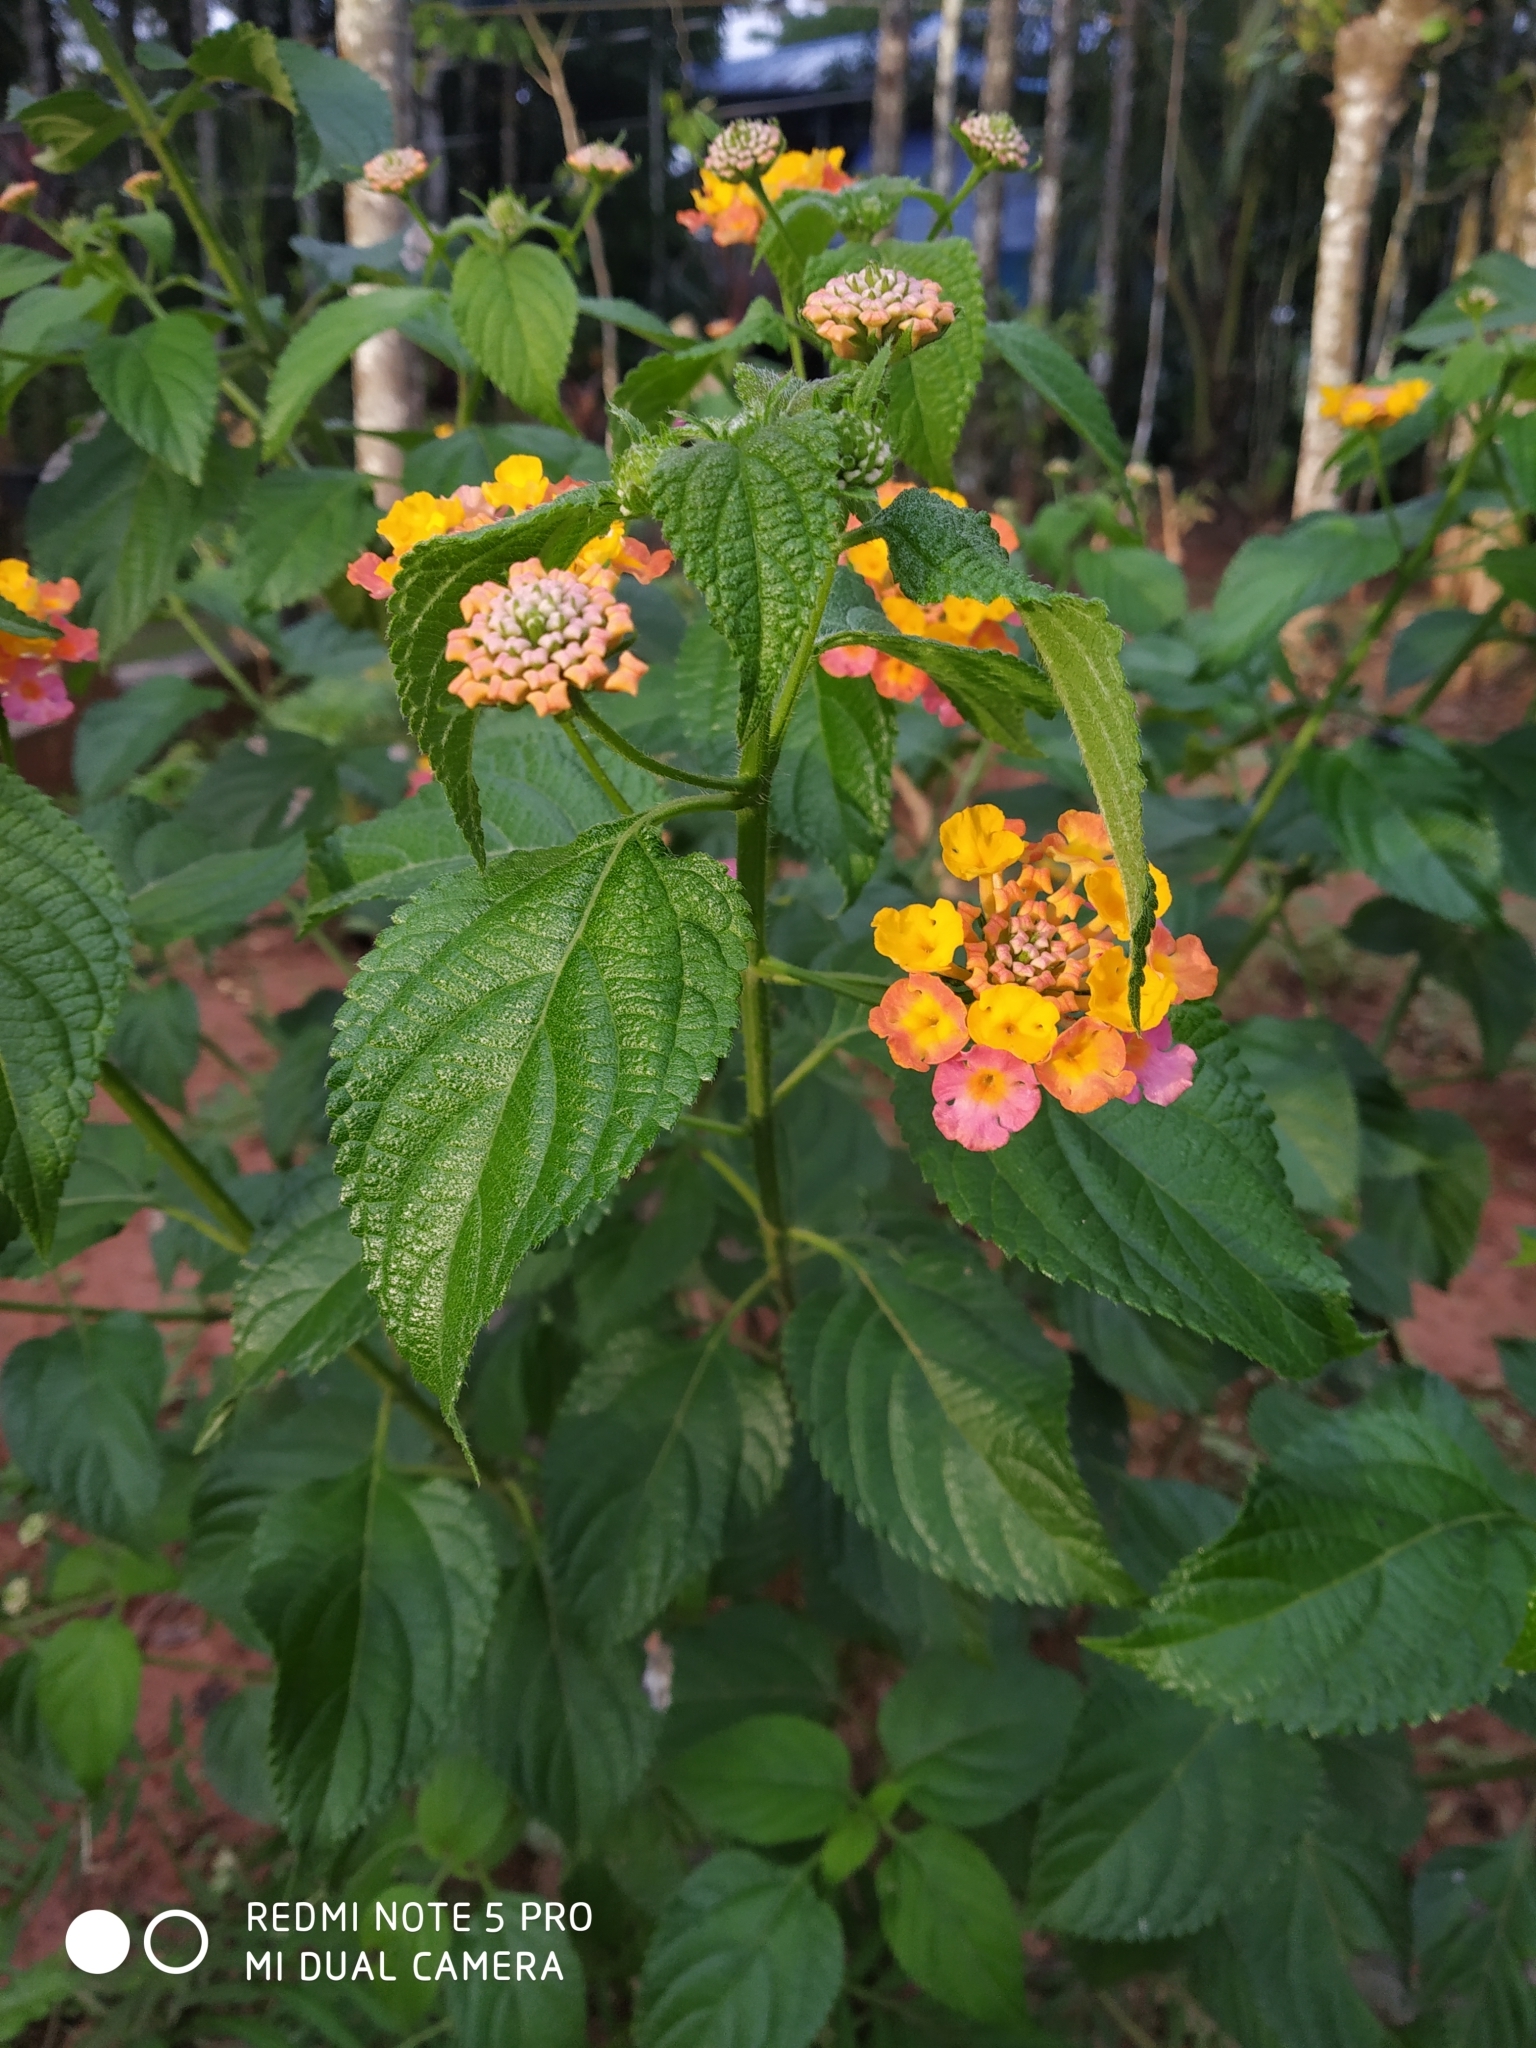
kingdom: Plantae
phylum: Tracheophyta
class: Magnoliopsida
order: Lamiales
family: Verbenaceae
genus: Lantana
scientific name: Lantana camara
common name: Lantana
